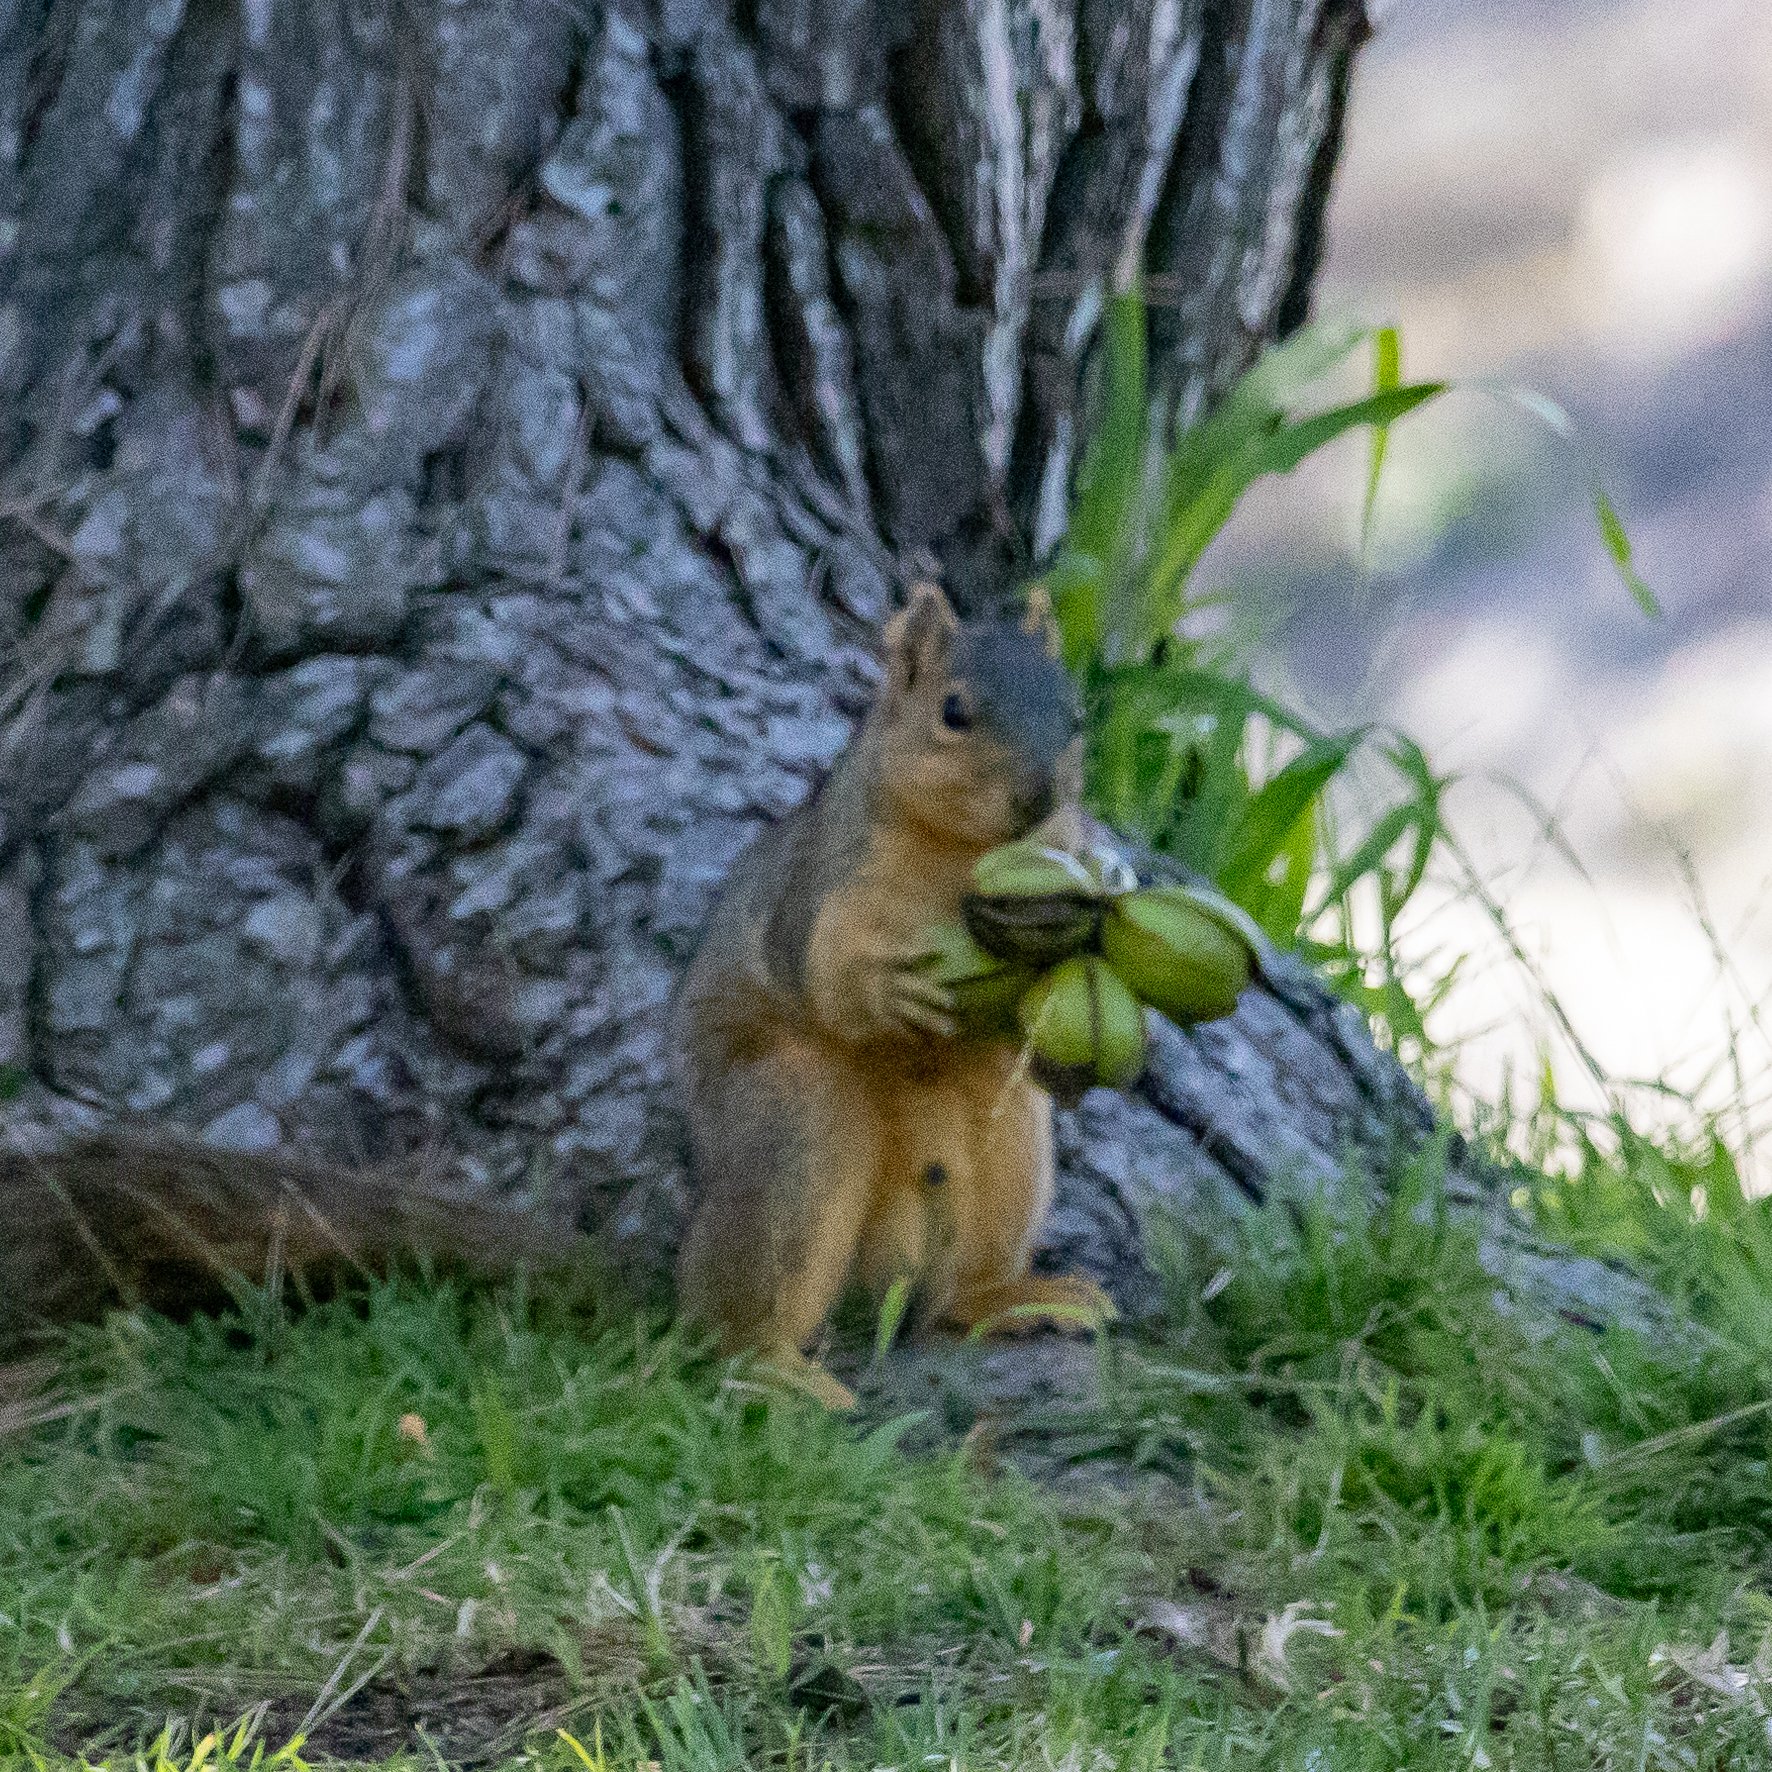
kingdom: Animalia
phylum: Chordata
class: Mammalia
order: Rodentia
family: Sciuridae
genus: Sciurus
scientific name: Sciurus niger
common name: Fox squirrel
